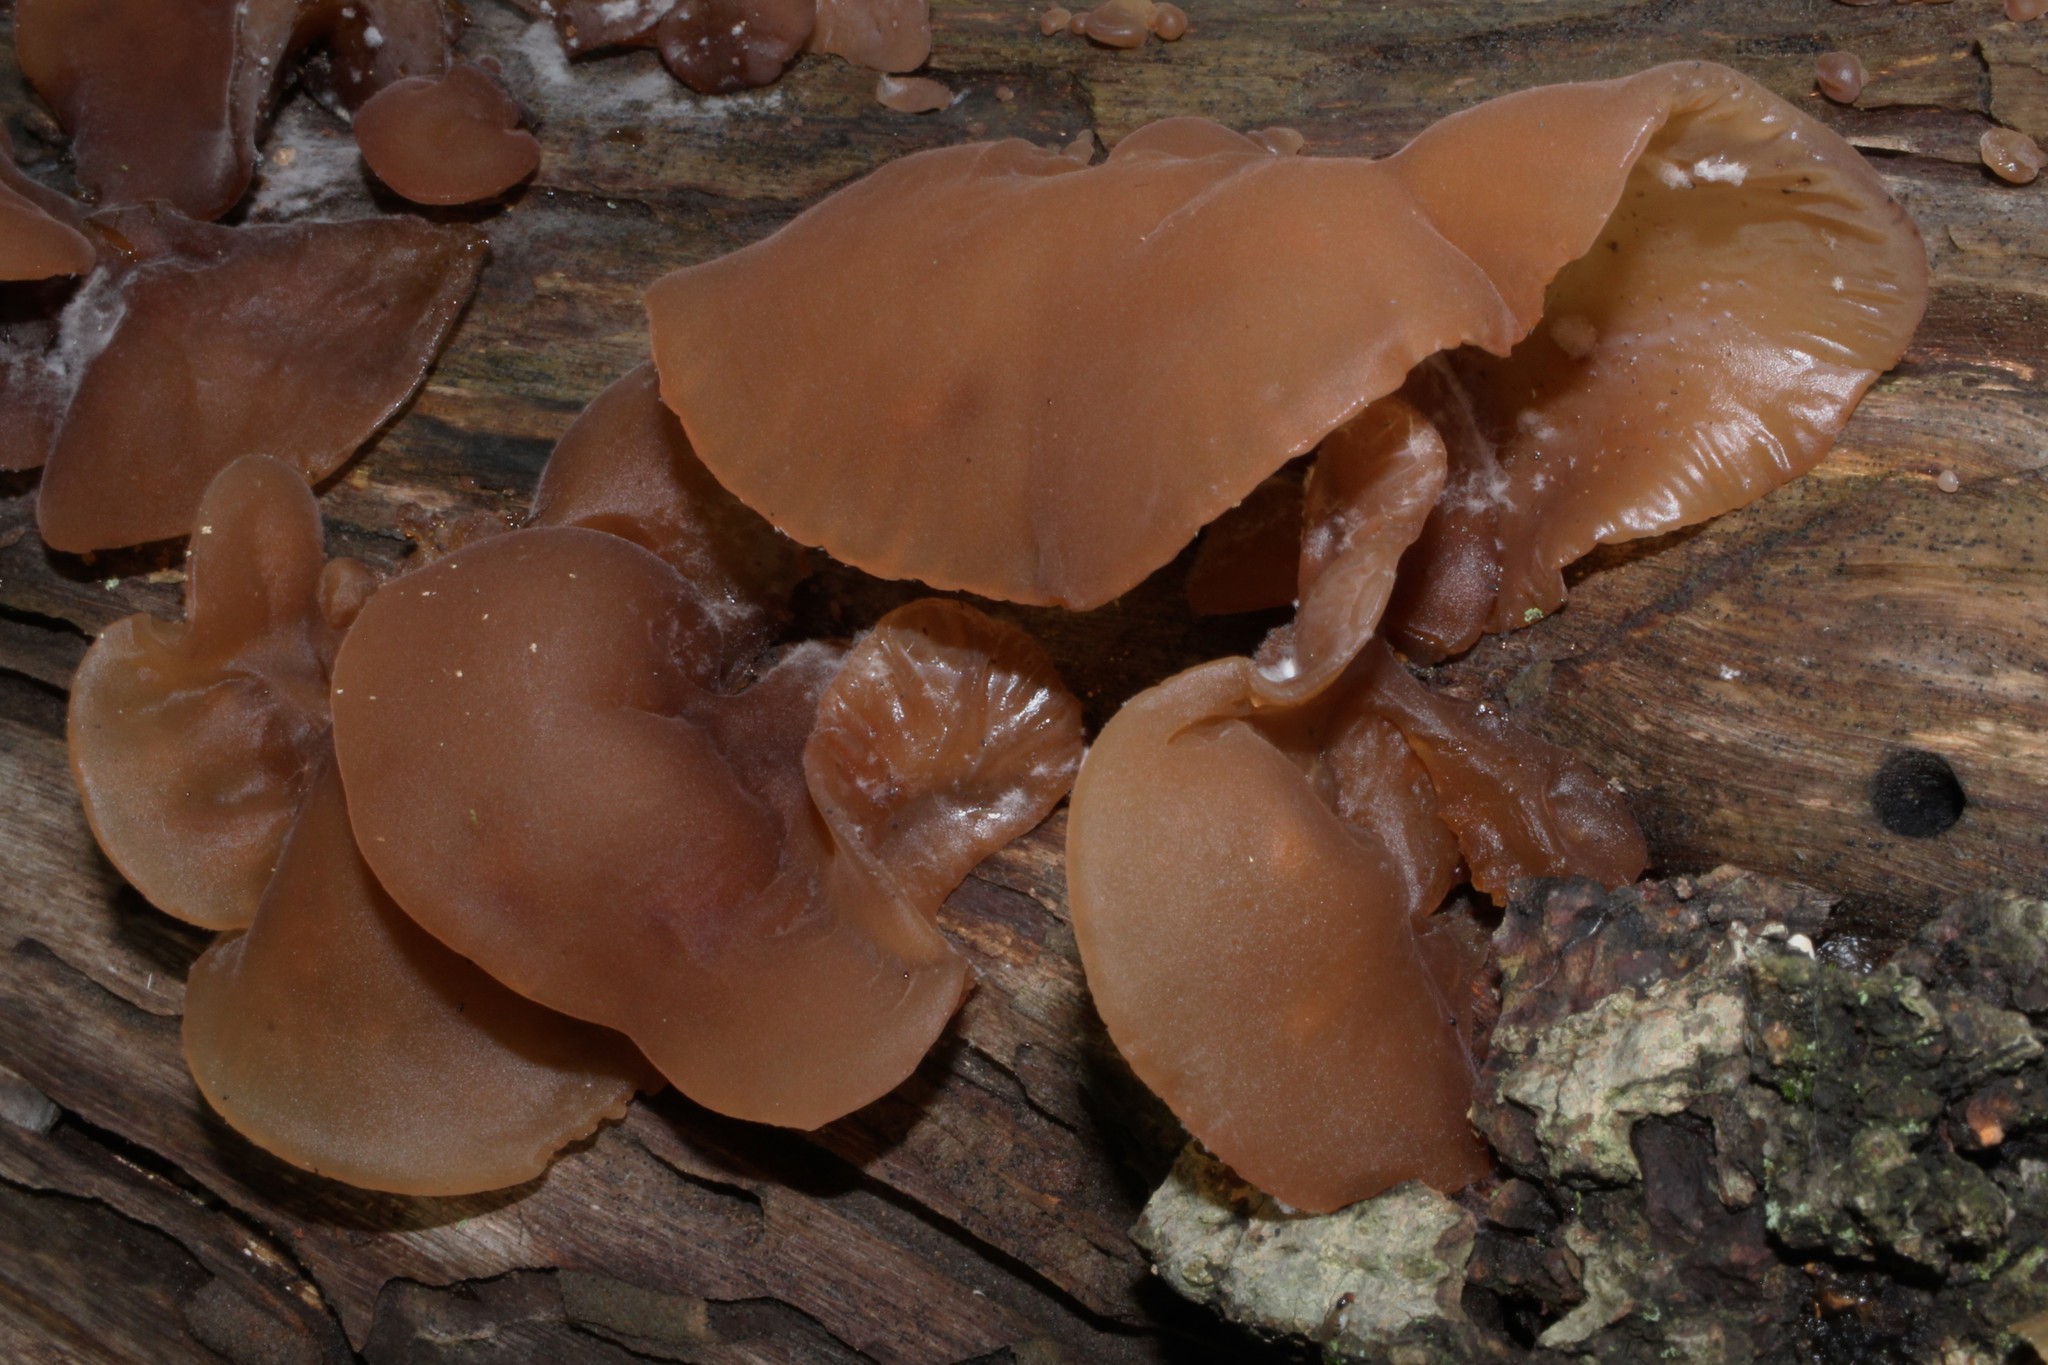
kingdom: Fungi
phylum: Basidiomycota
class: Agaricomycetes
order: Auriculariales
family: Auriculariaceae
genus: Auricularia
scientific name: Auricularia
